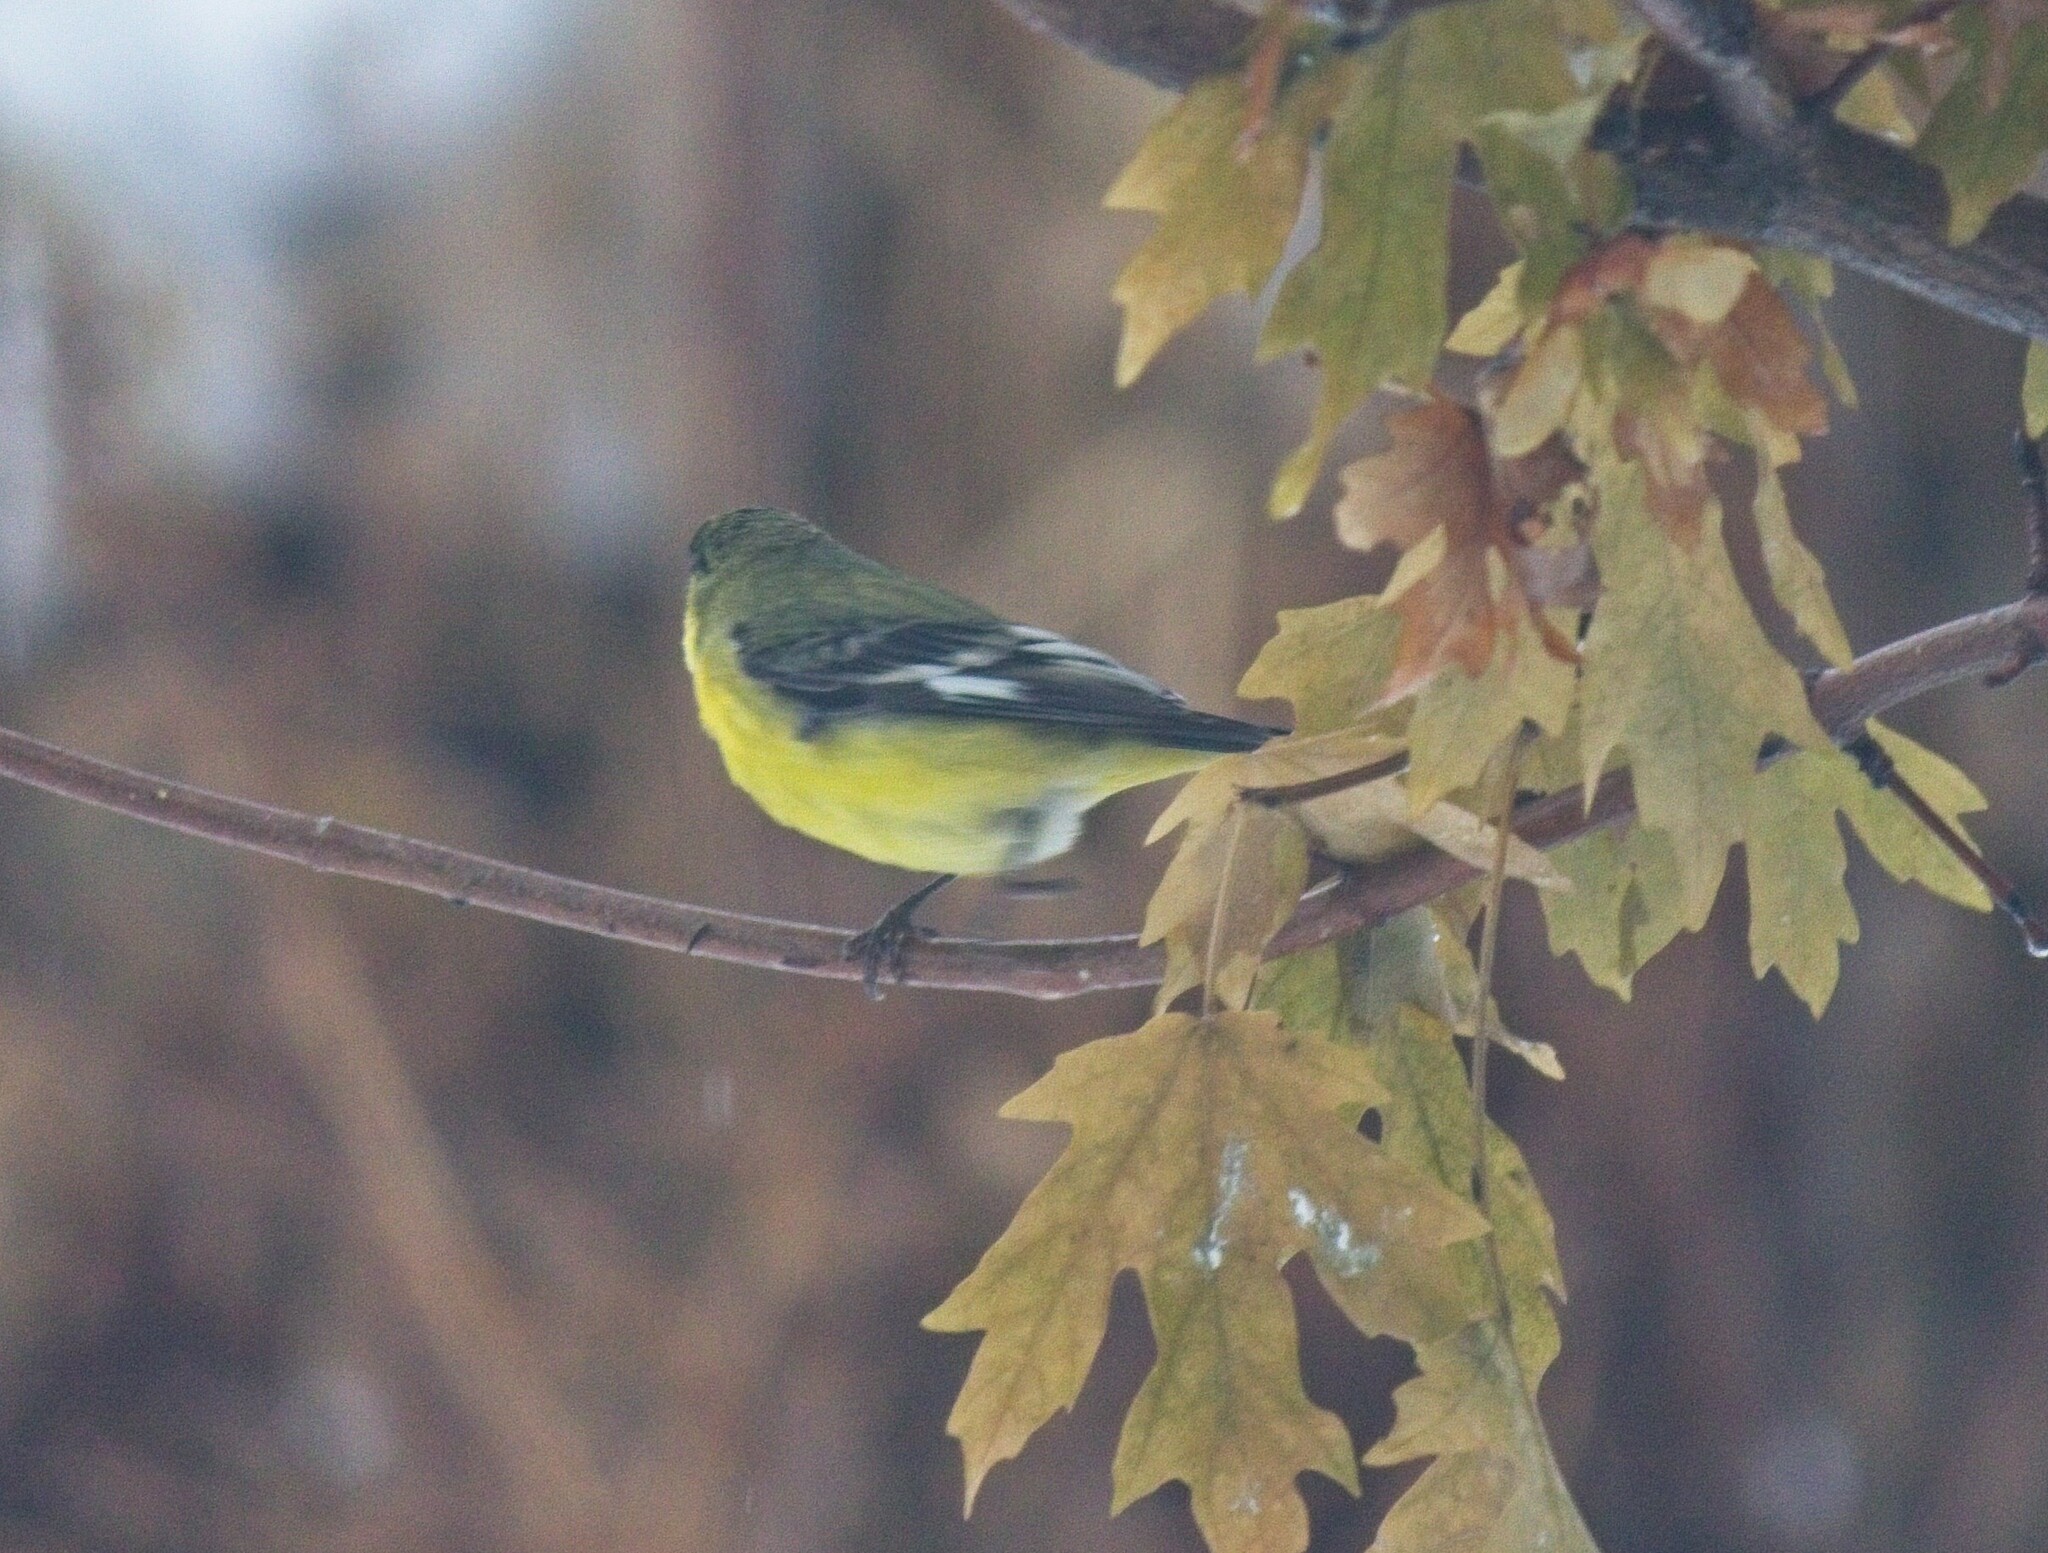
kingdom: Animalia
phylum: Chordata
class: Aves
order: Passeriformes
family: Fringillidae
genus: Spinus
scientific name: Spinus psaltria
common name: Lesser goldfinch
